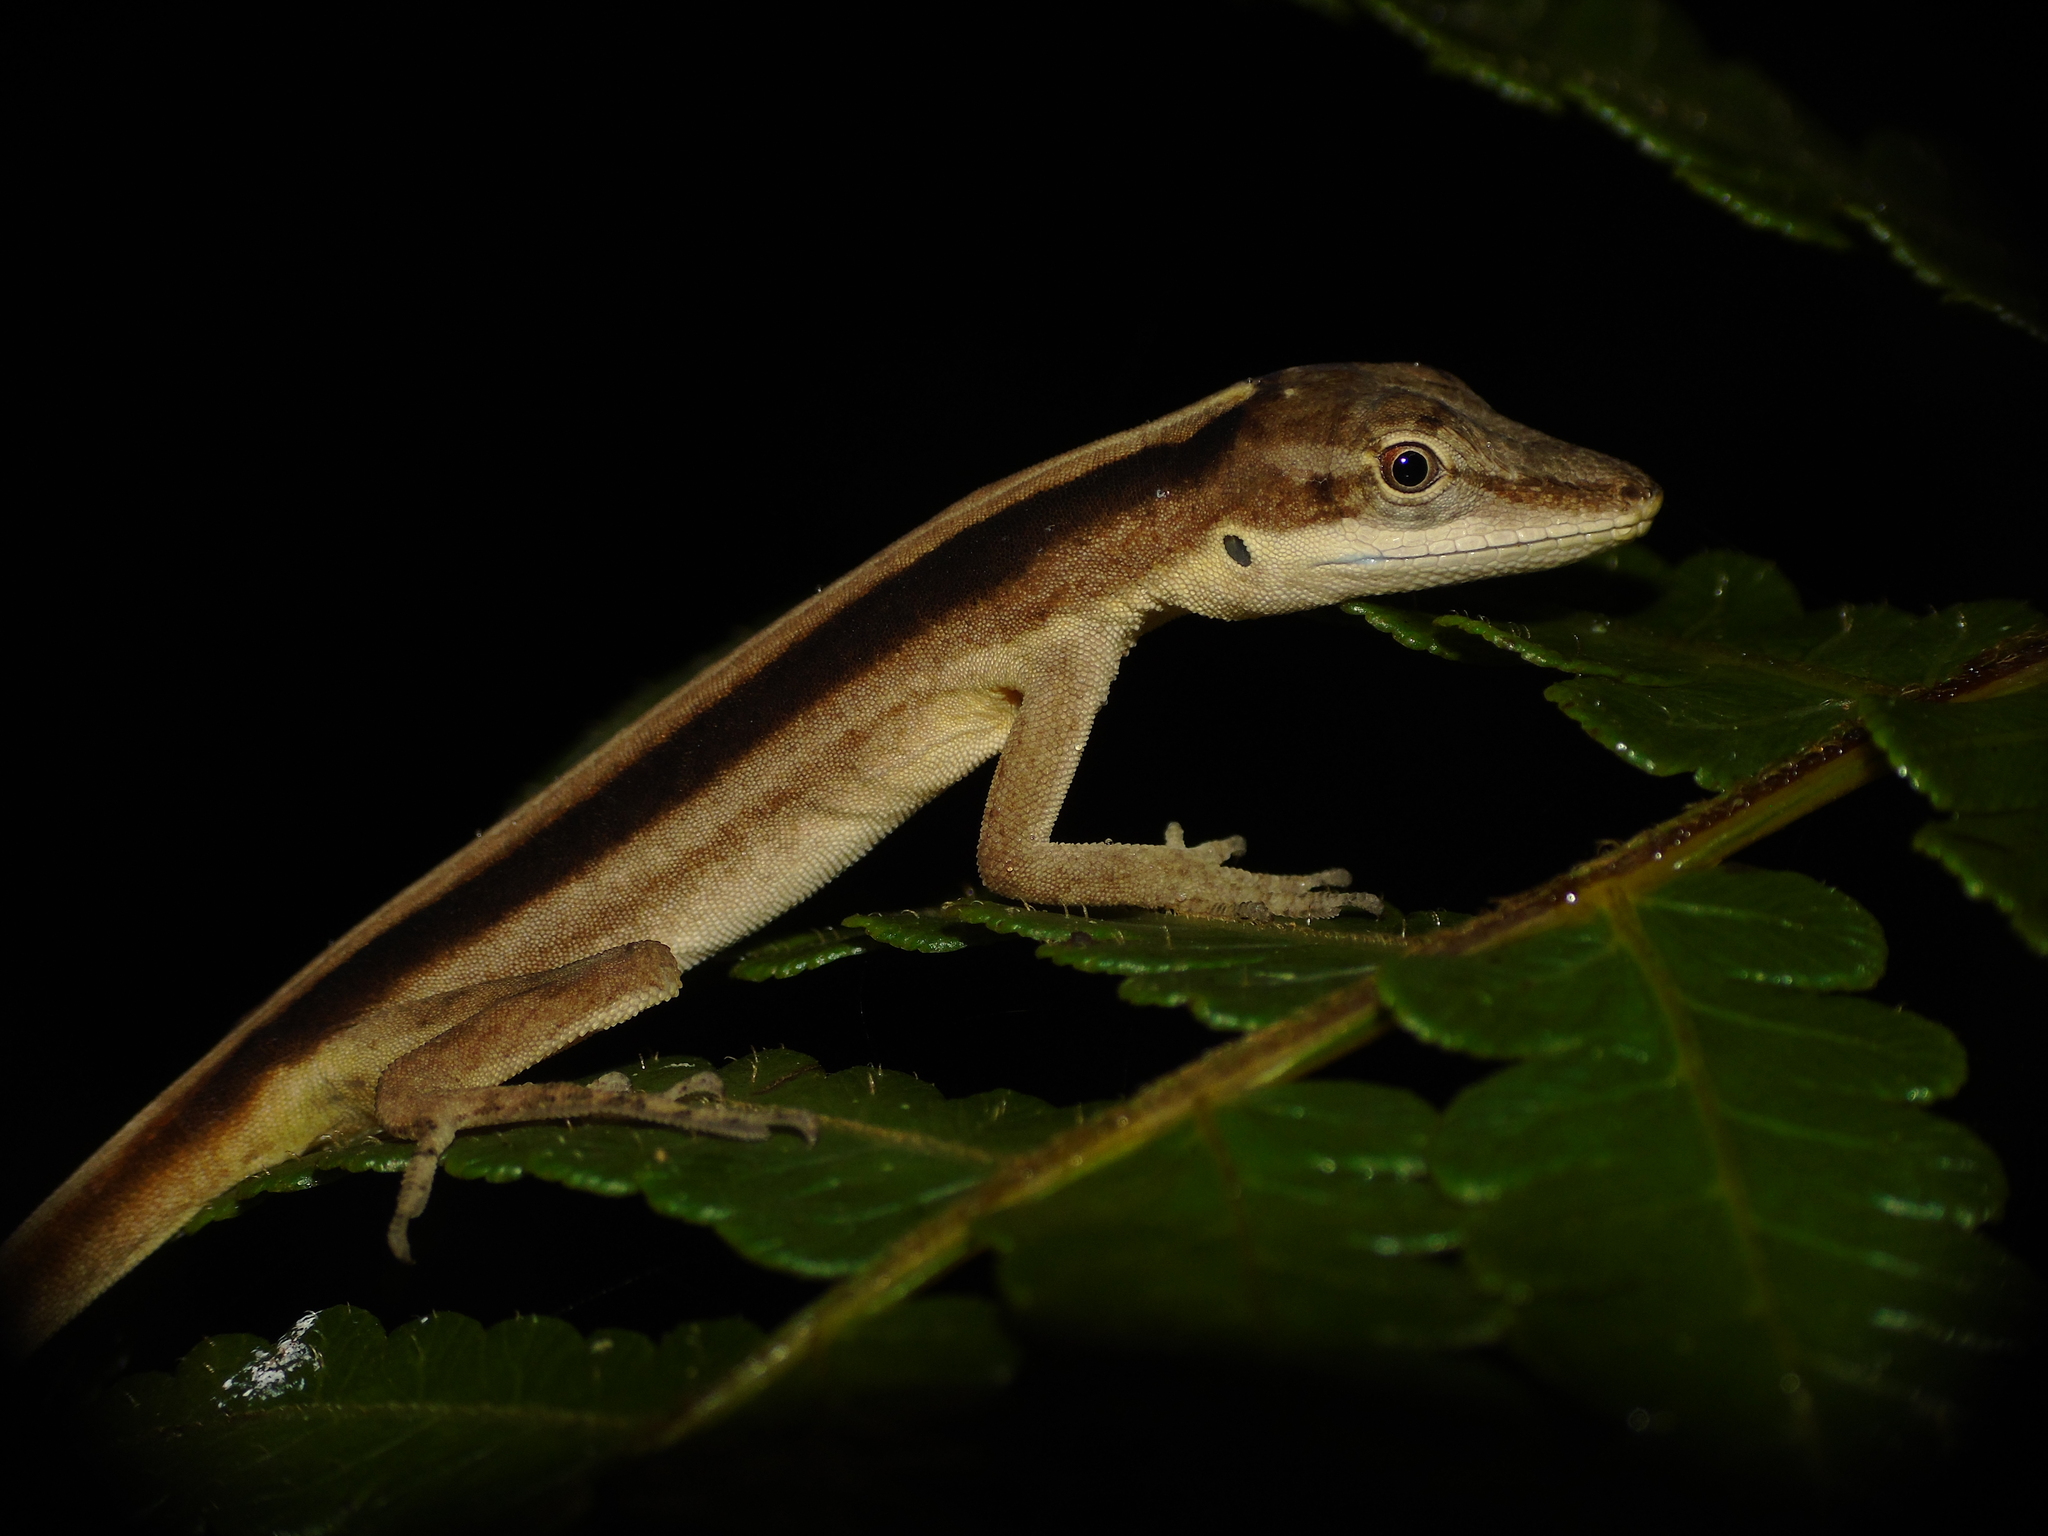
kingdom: Animalia
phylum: Chordata
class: Squamata
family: Dactyloidae
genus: Anolis
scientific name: Anolis kemptoni
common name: Kempton's anole
